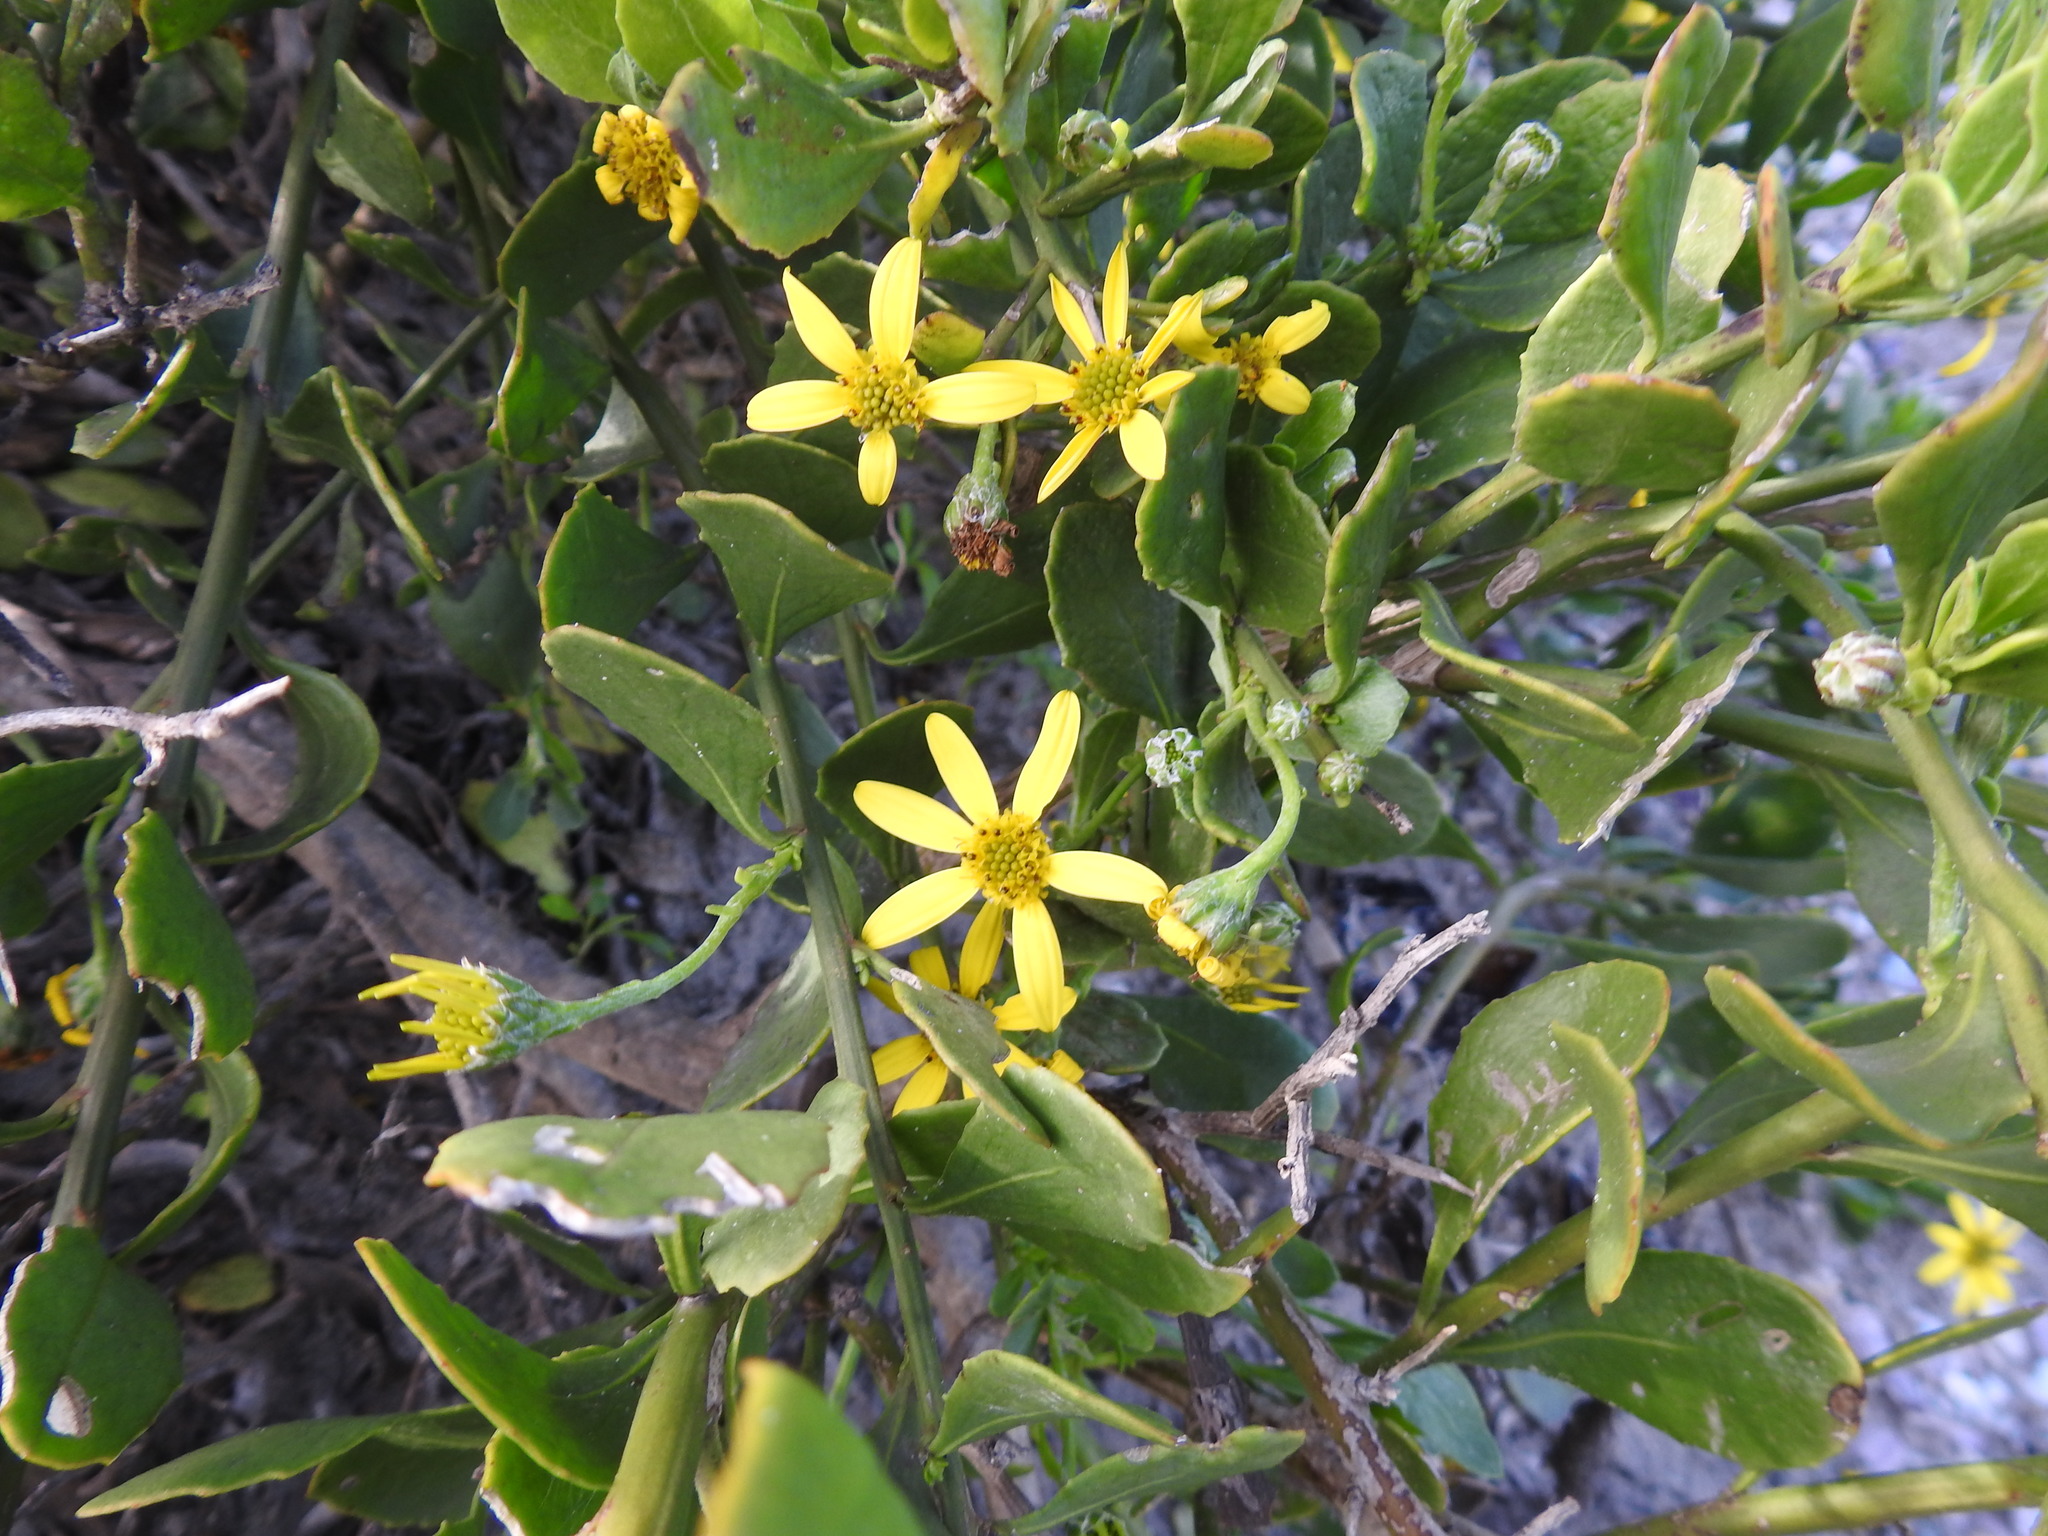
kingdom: Plantae
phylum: Tracheophyta
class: Magnoliopsida
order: Asterales
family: Asteraceae
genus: Osteospermum
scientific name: Osteospermum moniliferum
